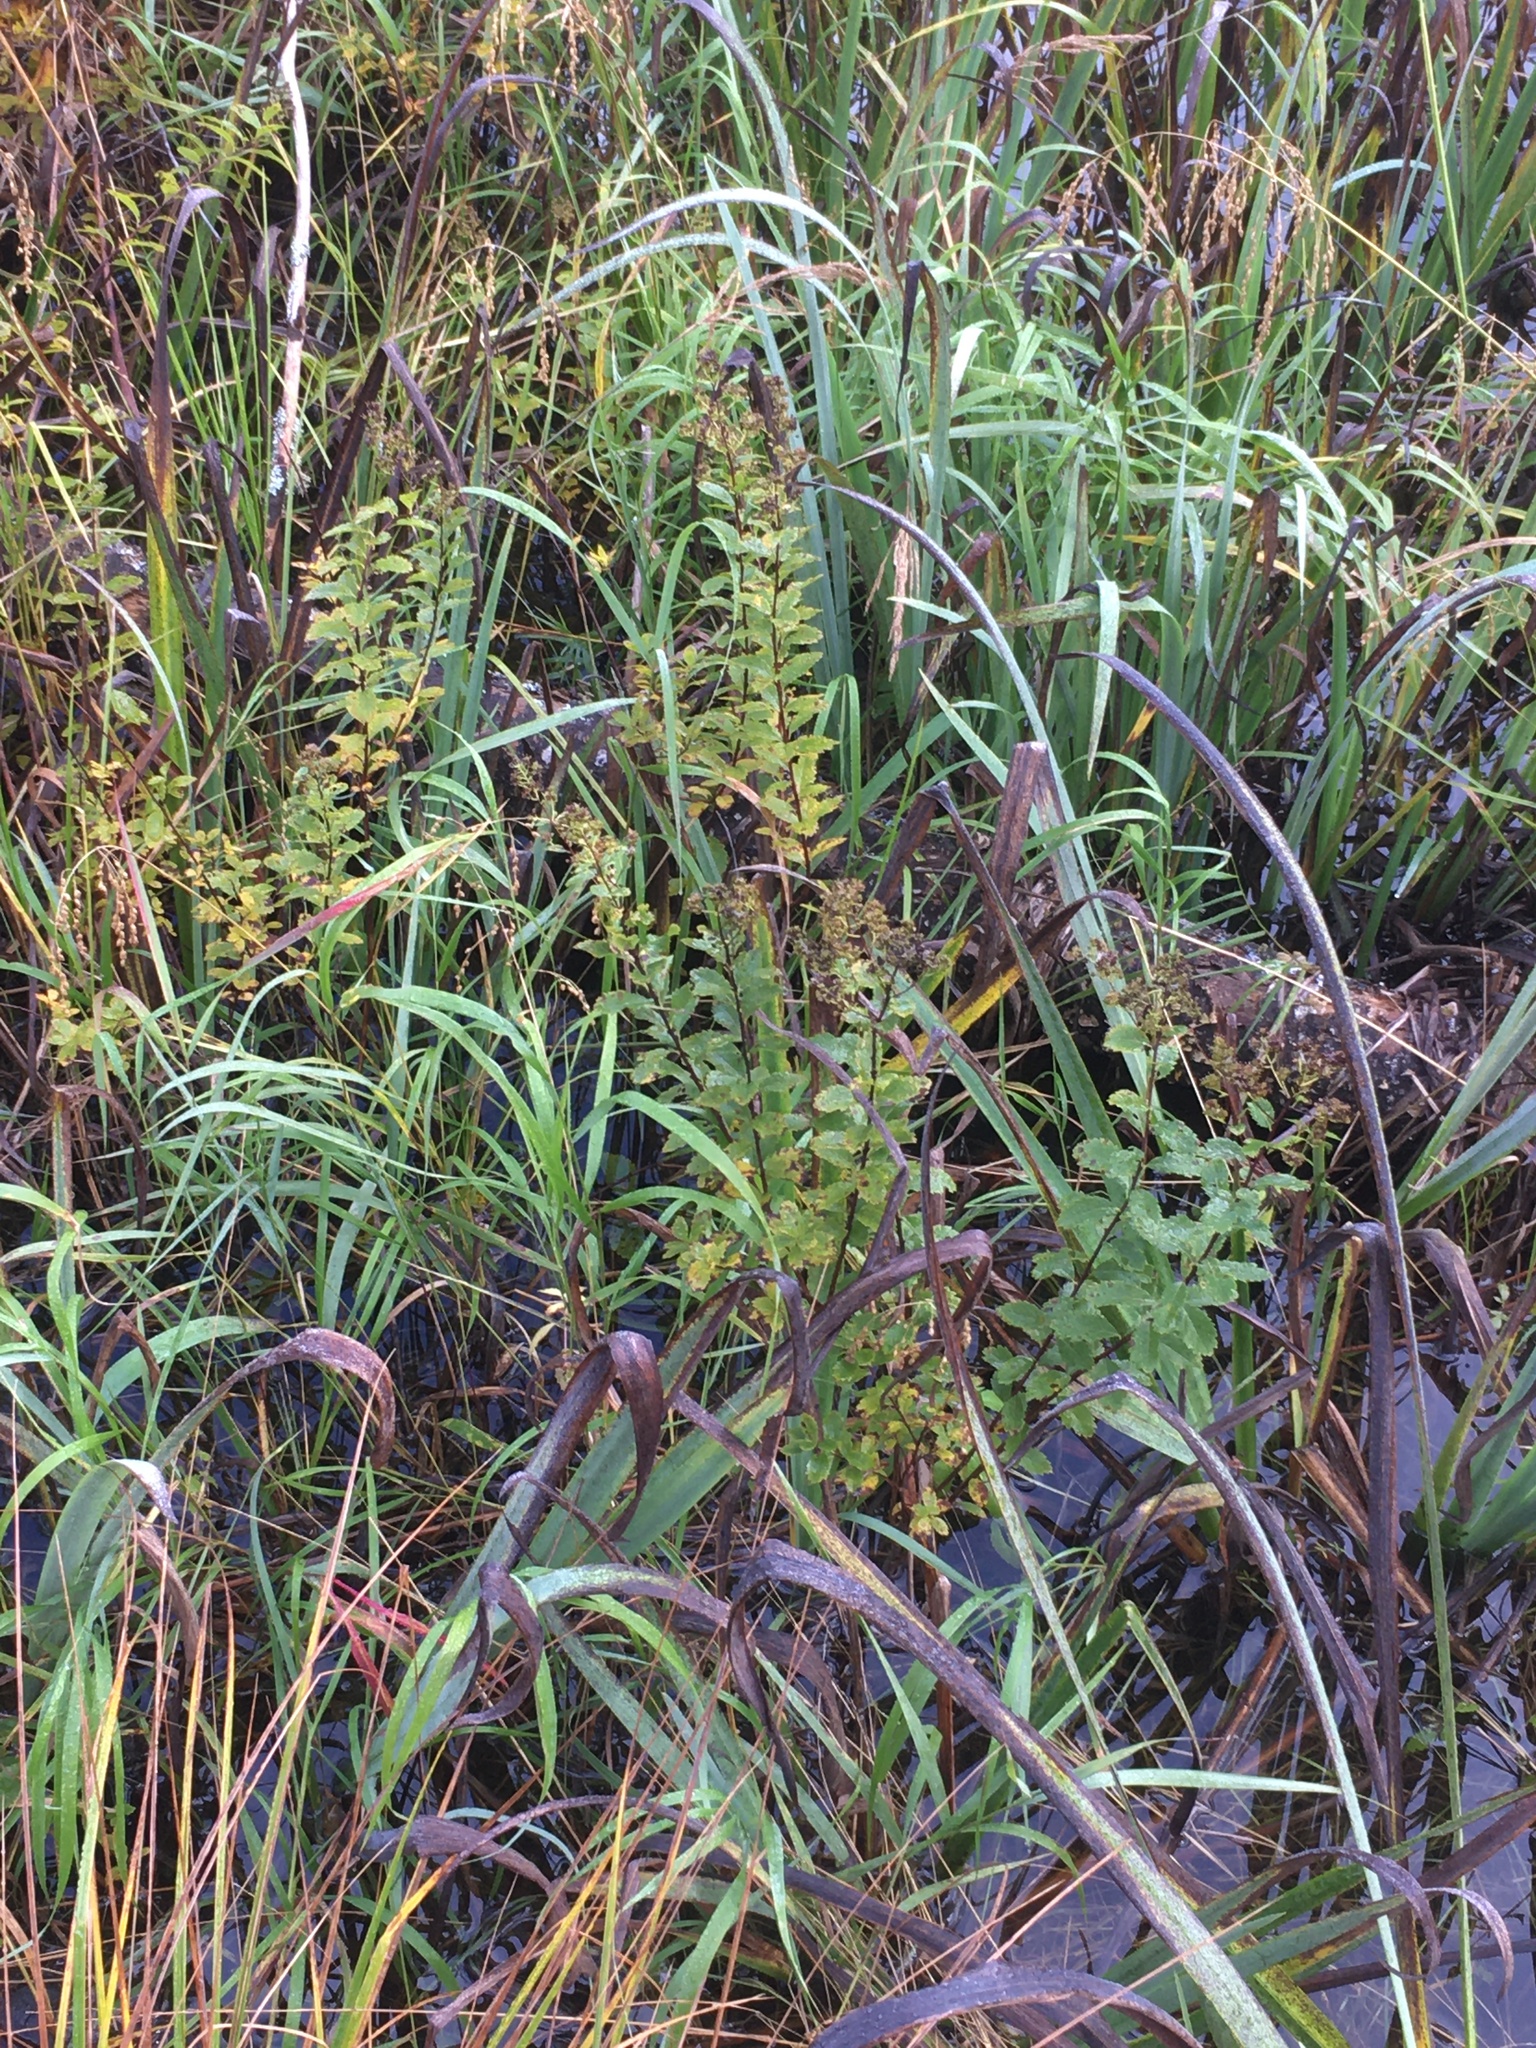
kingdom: Plantae
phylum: Tracheophyta
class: Magnoliopsida
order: Rosales
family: Rosaceae
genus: Spiraea
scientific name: Spiraea alba
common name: Pale bridewort
